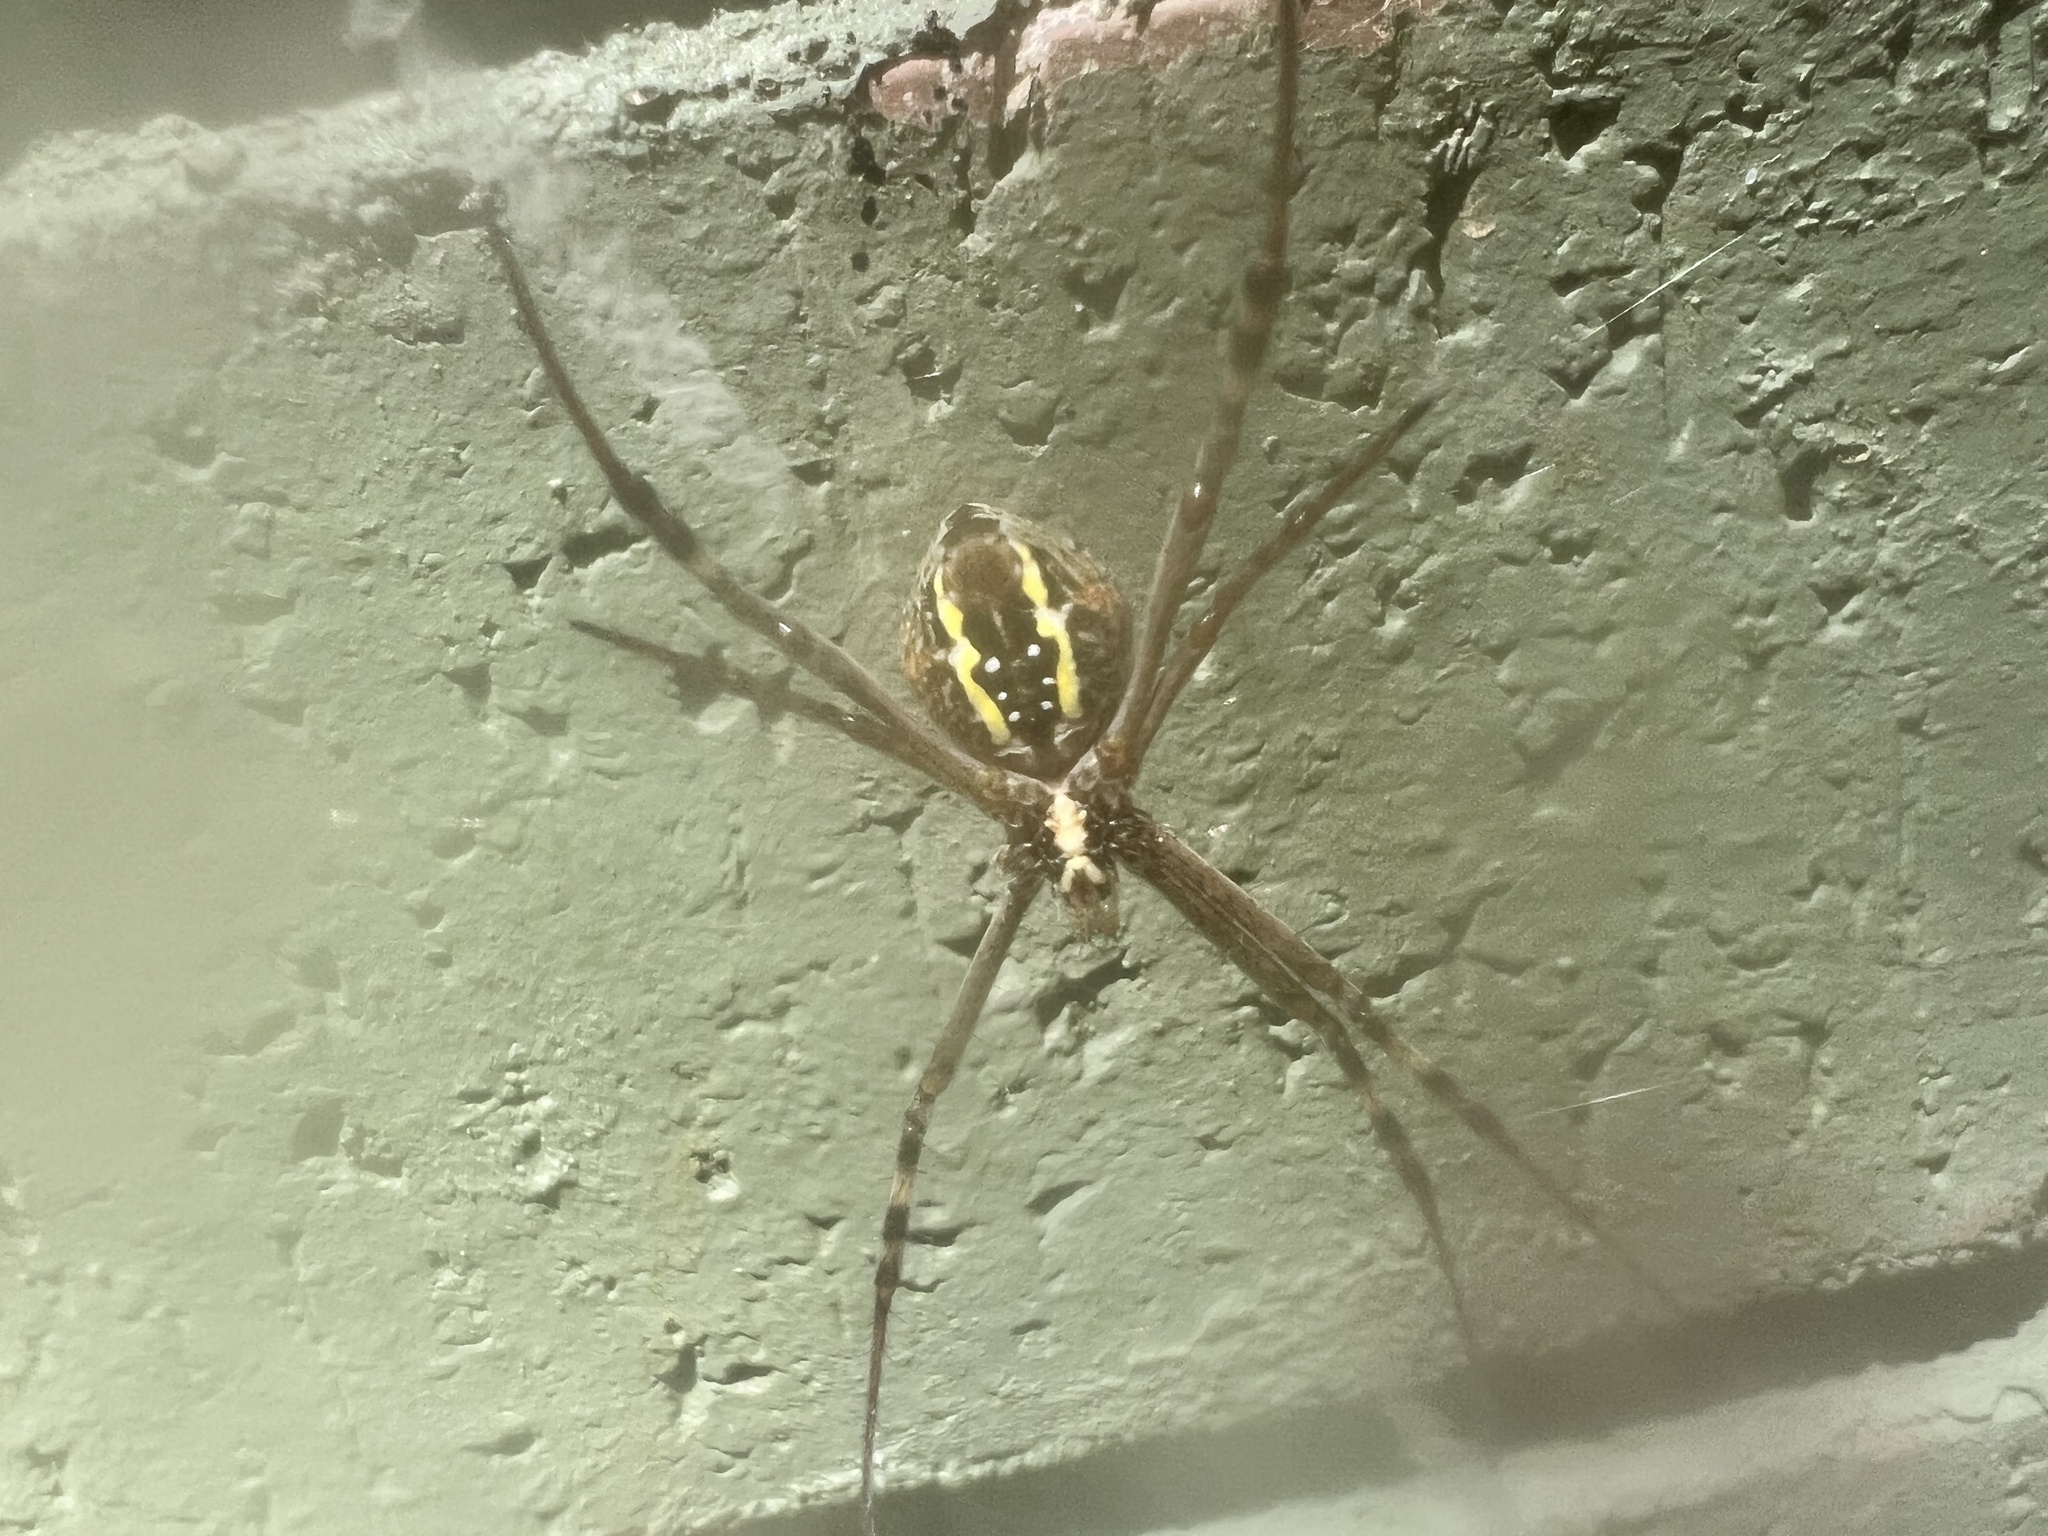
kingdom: Animalia
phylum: Arthropoda
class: Arachnida
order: Araneae
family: Araneidae
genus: Argiope
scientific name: Argiope keyserlingi
